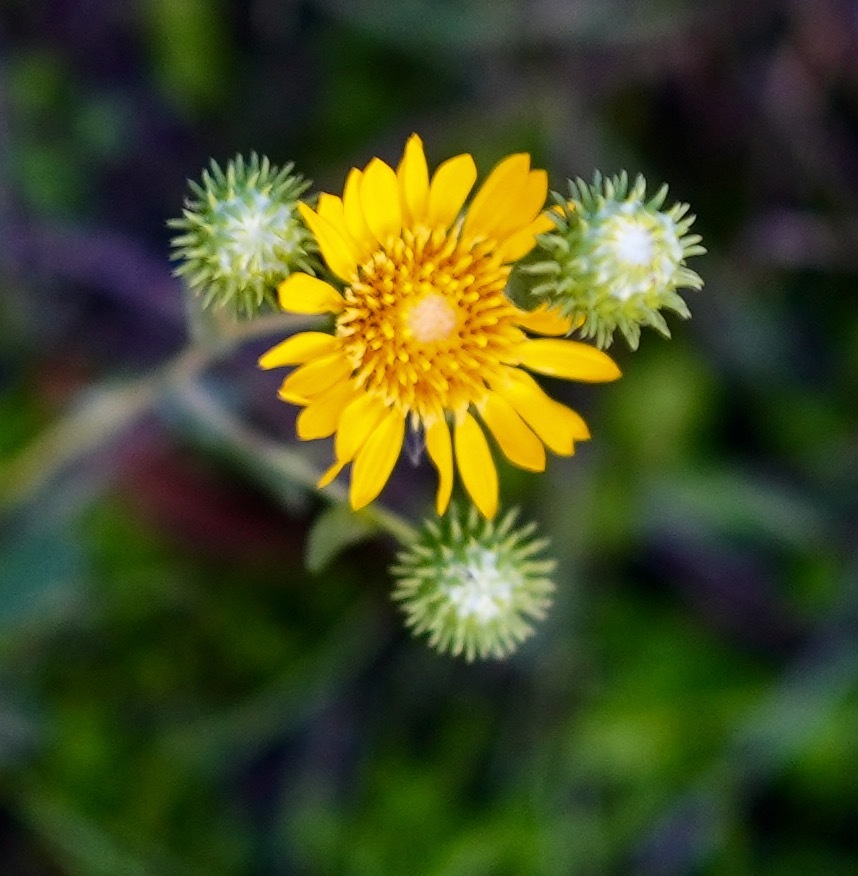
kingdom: Plantae
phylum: Tracheophyta
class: Magnoliopsida
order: Asterales
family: Asteraceae
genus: Grindelia
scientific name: Grindelia hirsutula
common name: Hairy gumweed
